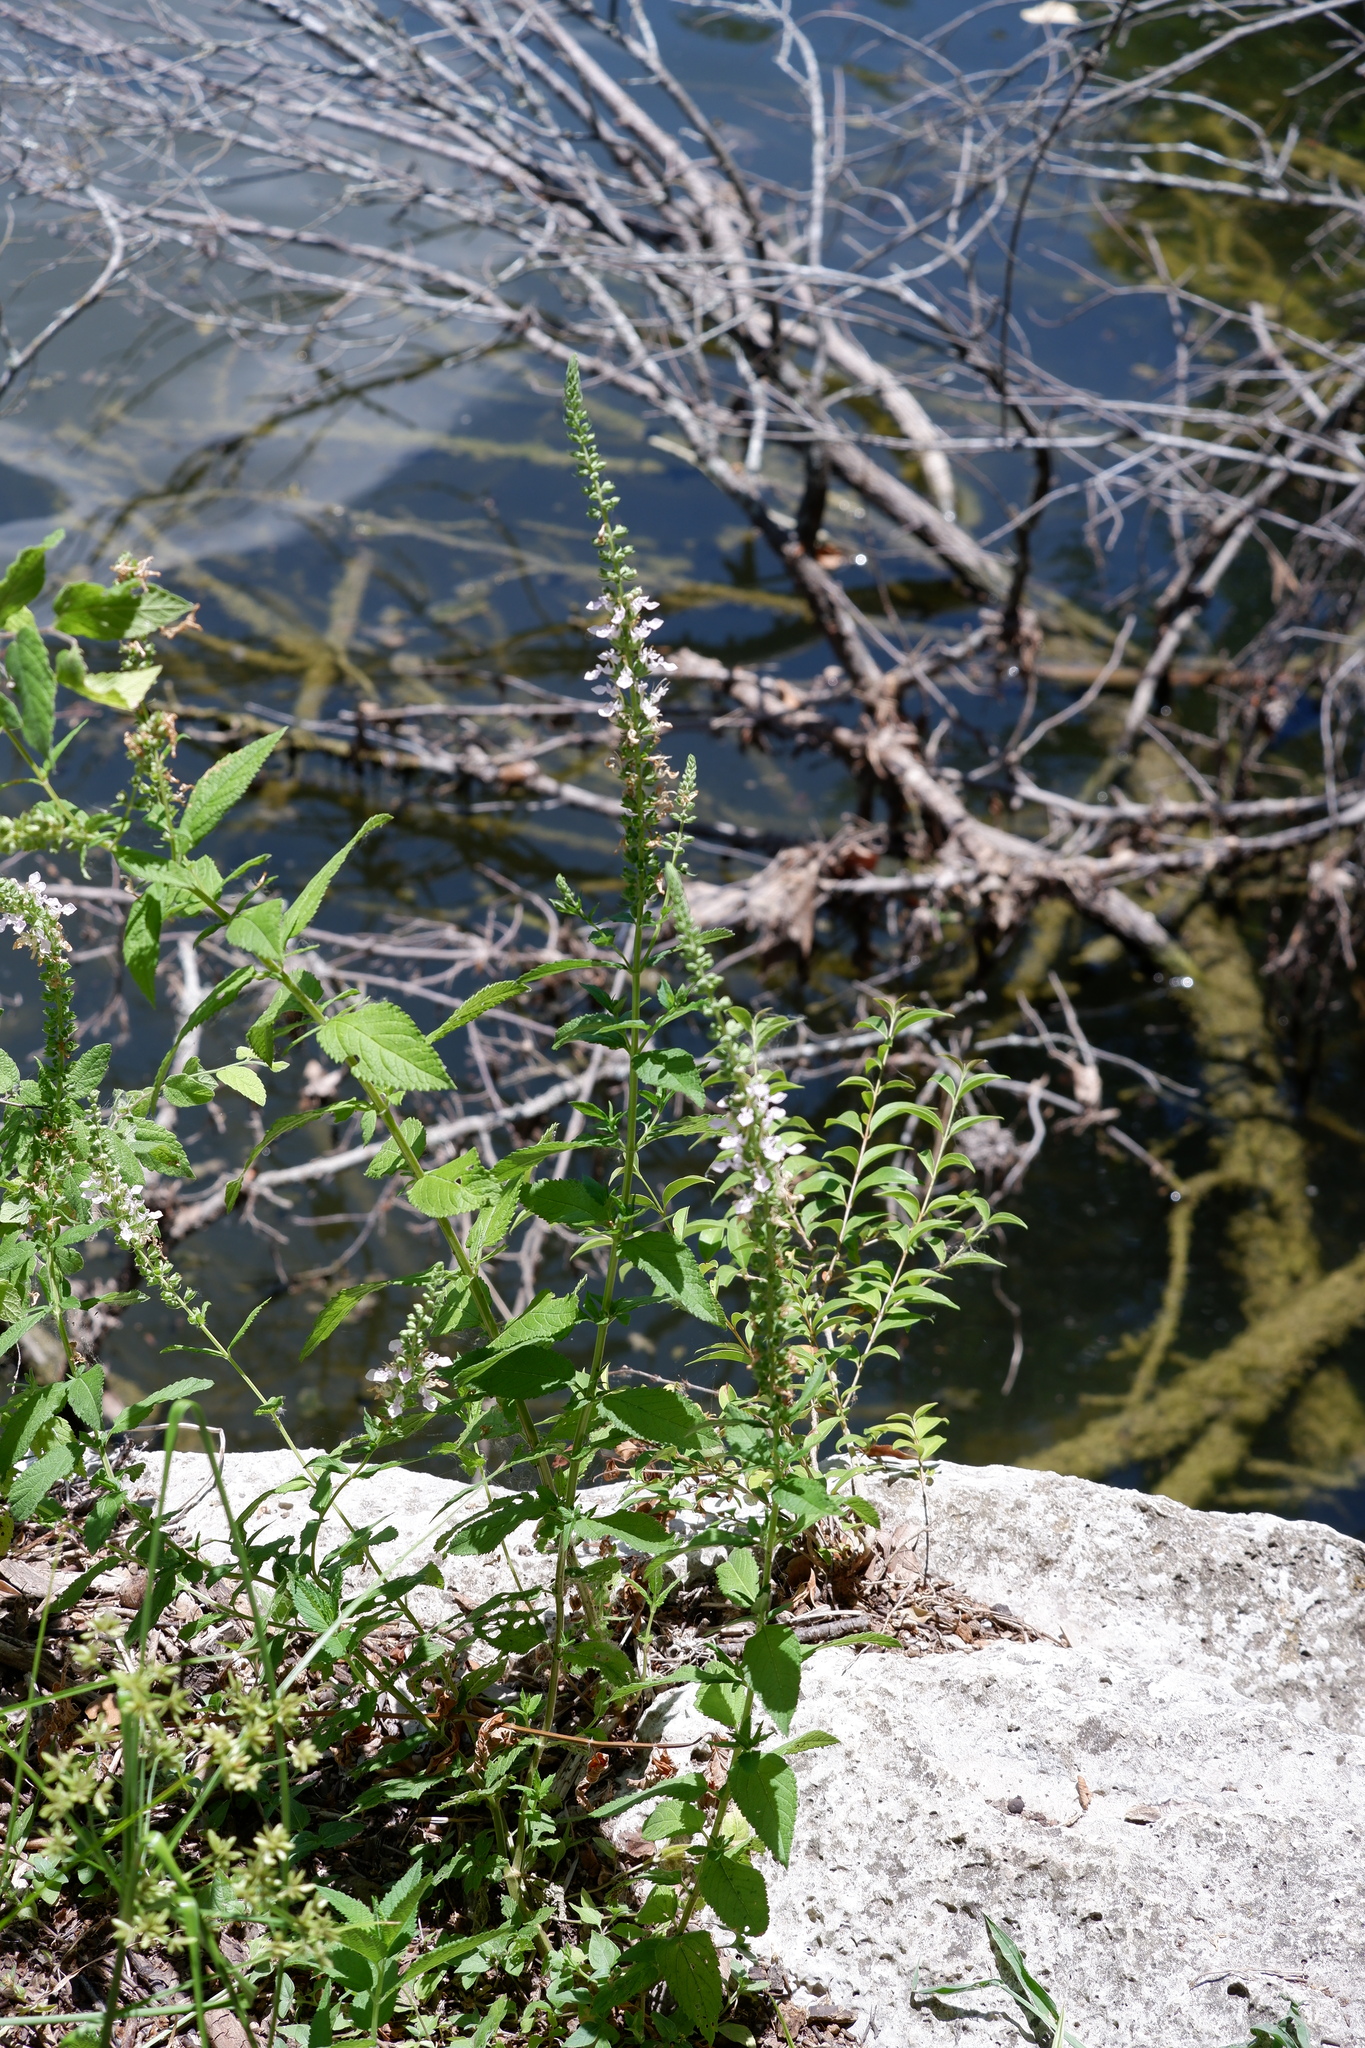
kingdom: Plantae
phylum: Tracheophyta
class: Magnoliopsida
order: Lamiales
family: Lamiaceae
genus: Teucrium
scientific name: Teucrium canadense
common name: American germander
